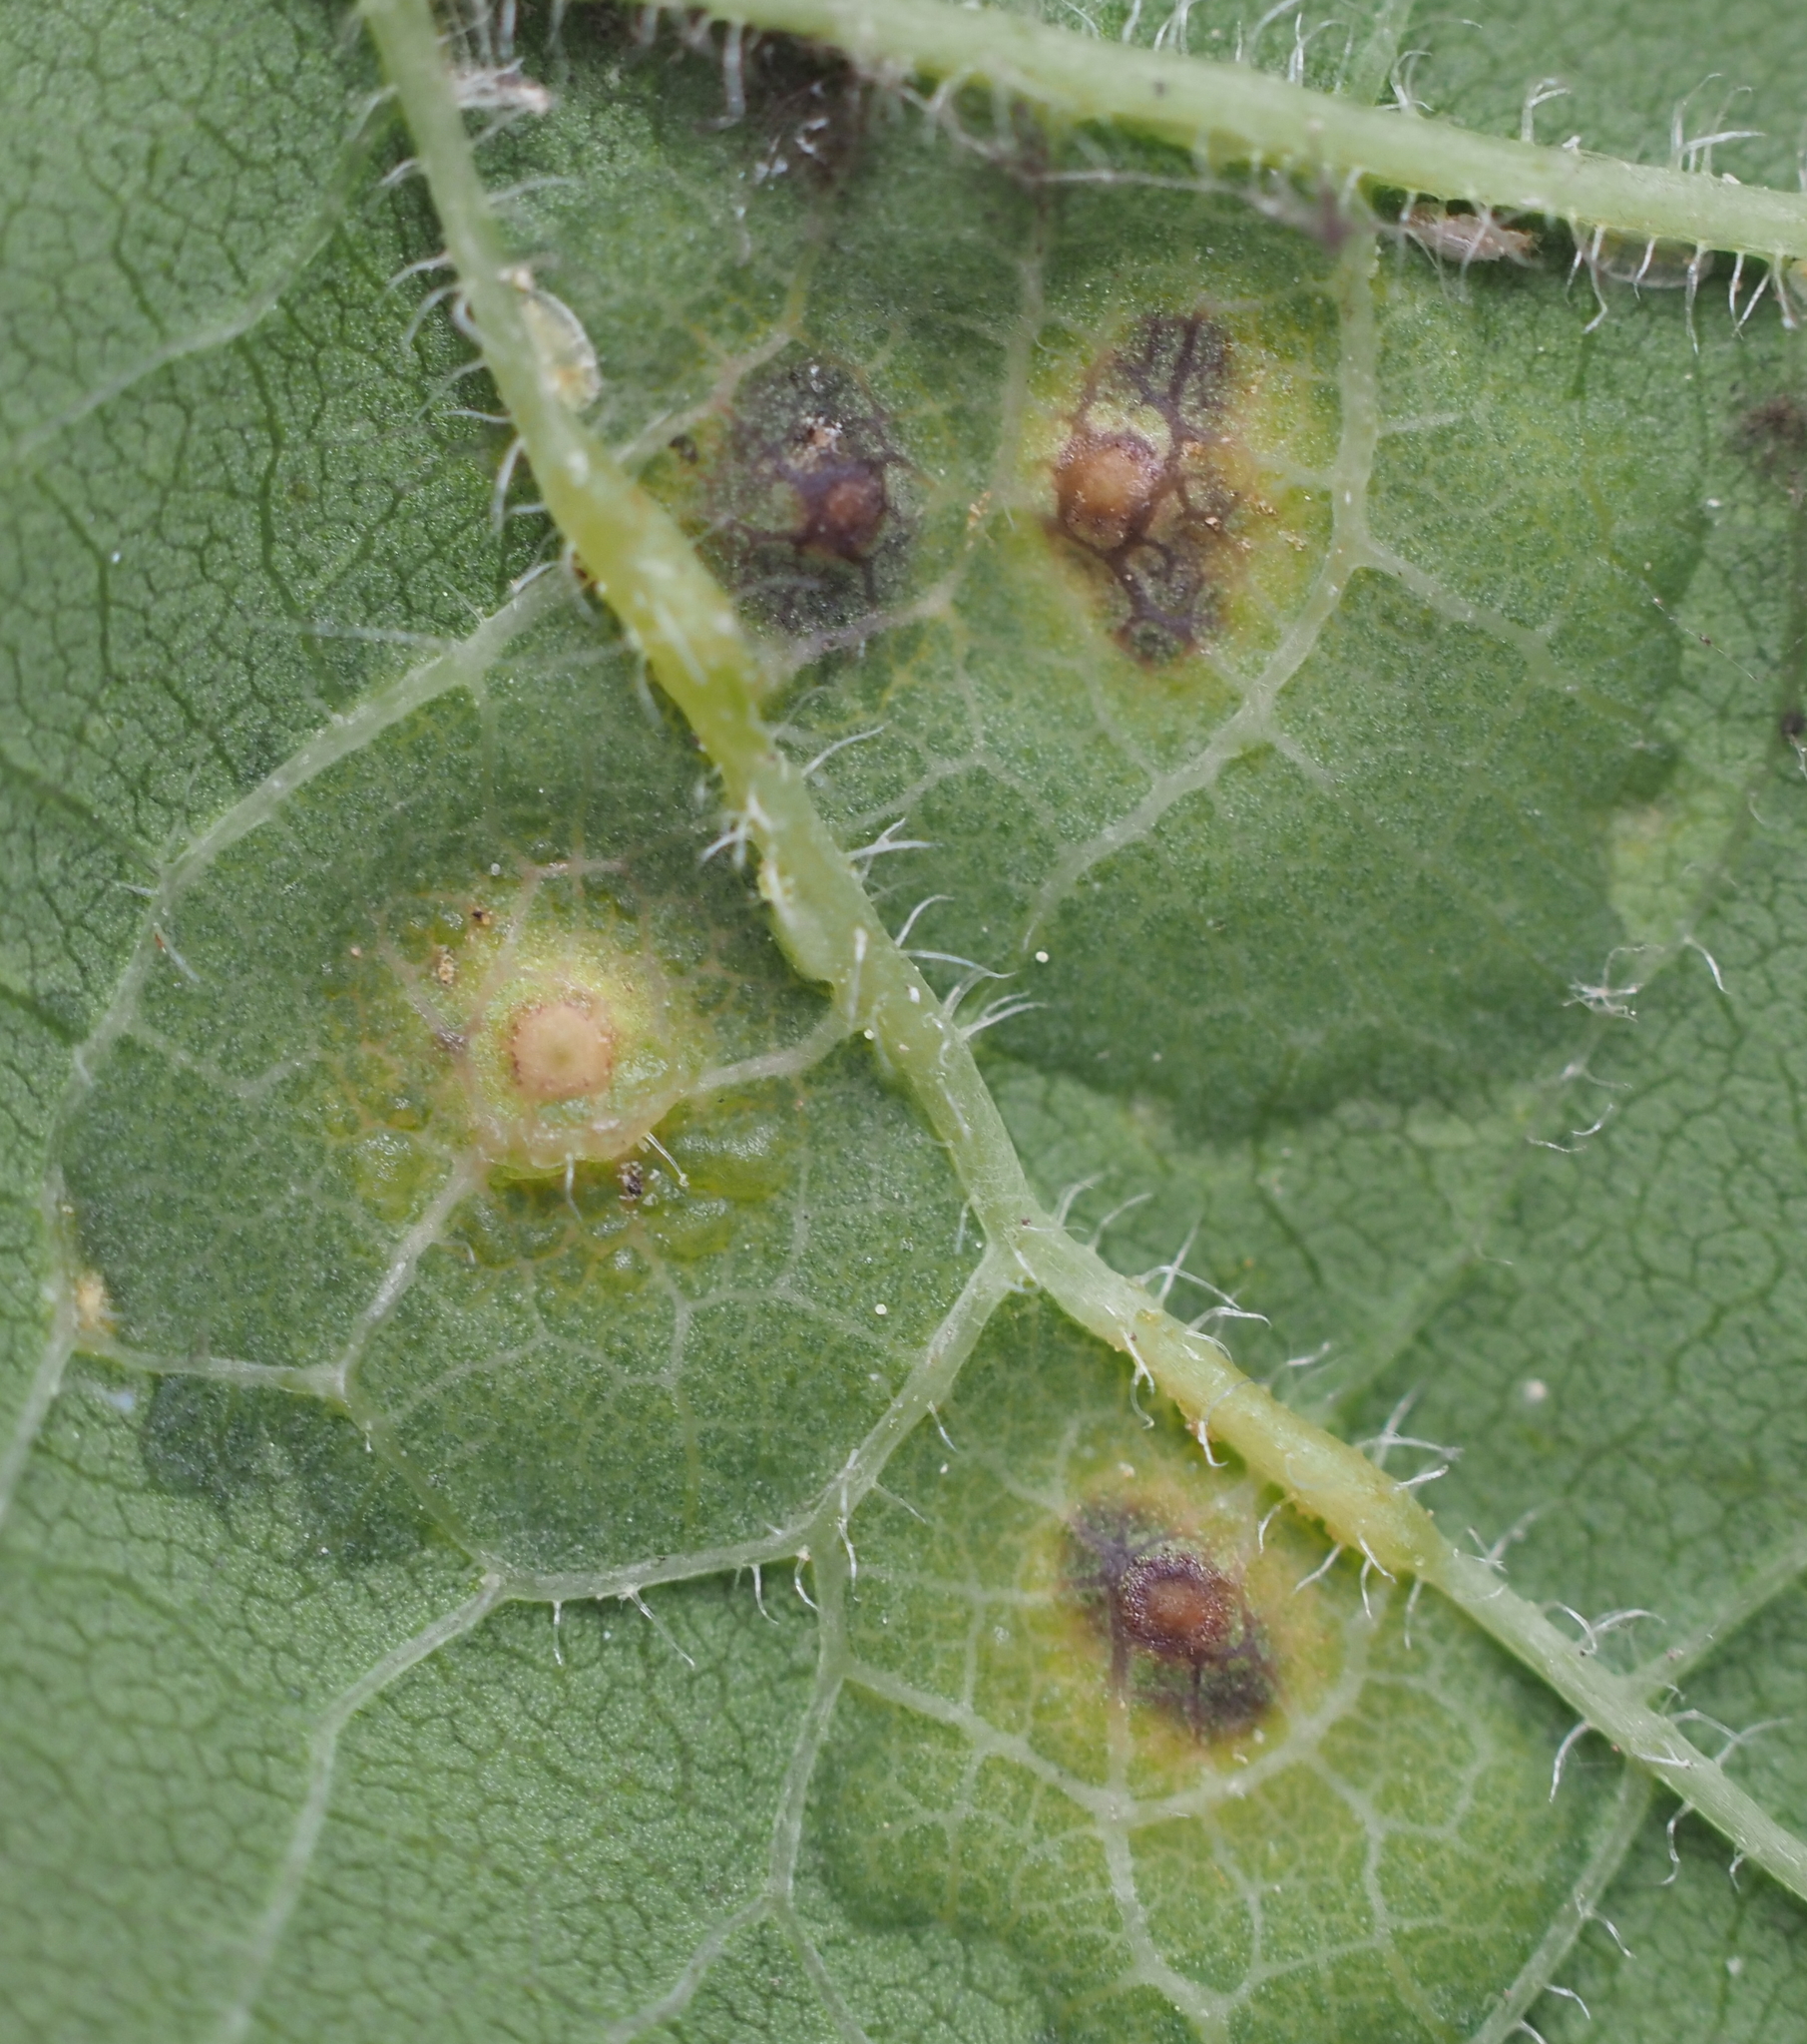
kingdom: Animalia
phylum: Arthropoda
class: Insecta
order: Hemiptera
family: Aphalaridae
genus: Pachypsylla
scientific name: Pachypsylla celtidisvesicula
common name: Hackberry blister gall psyllid
